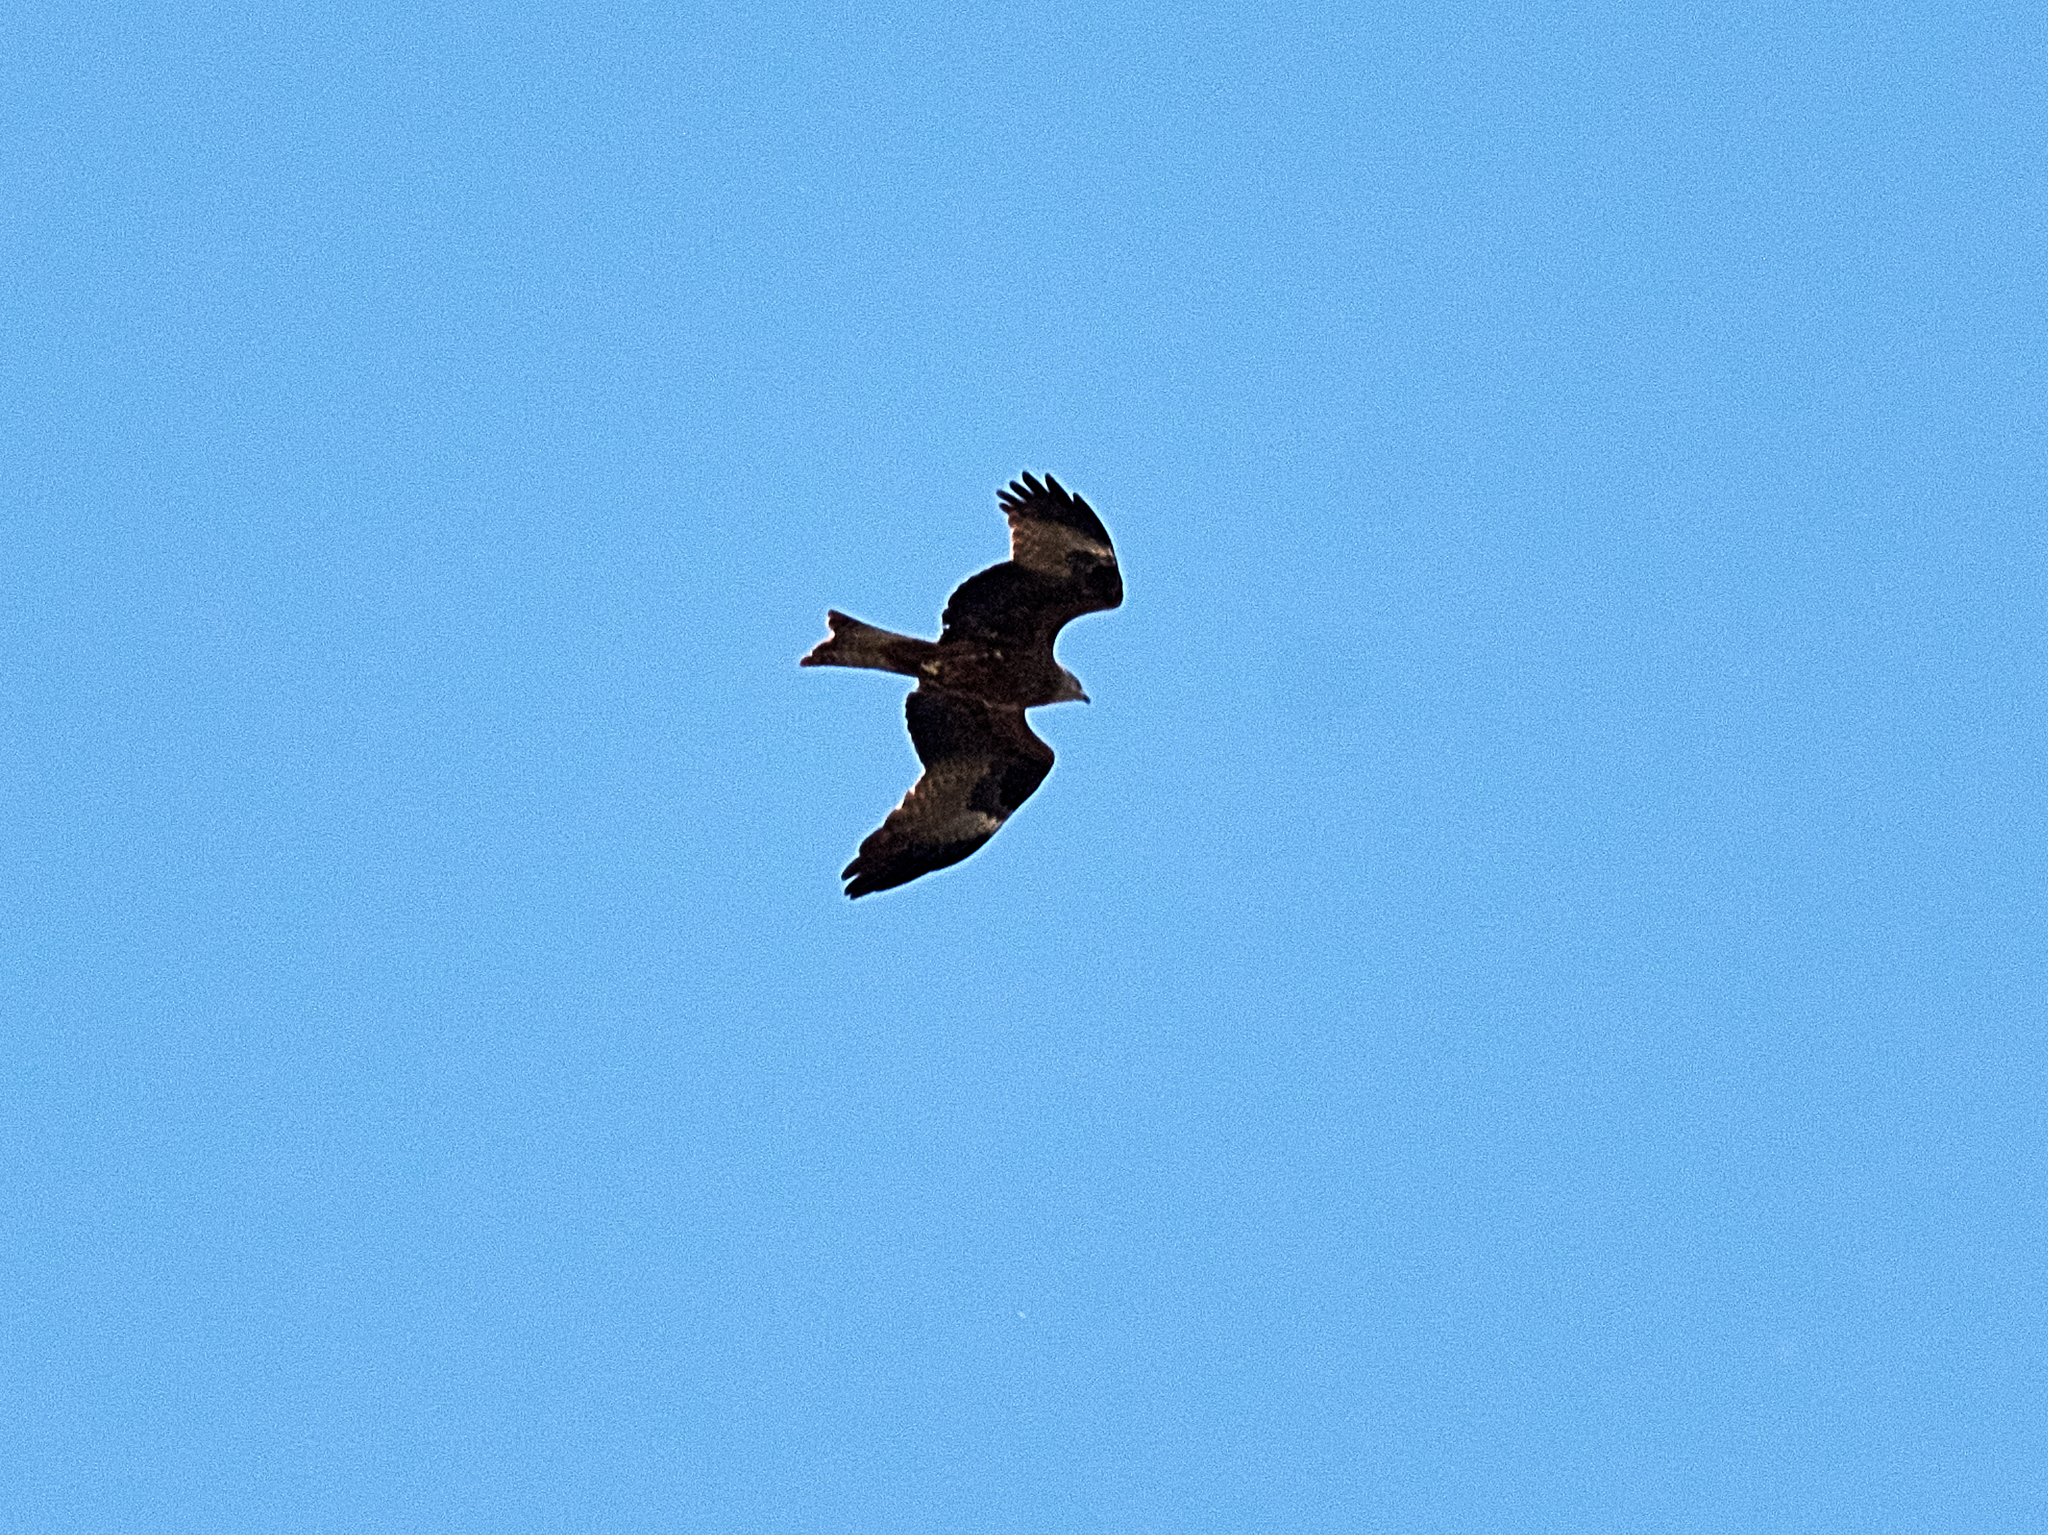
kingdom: Animalia
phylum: Chordata
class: Aves
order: Accipitriformes
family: Accipitridae
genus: Milvus
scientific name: Milvus migrans
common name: Black kite
